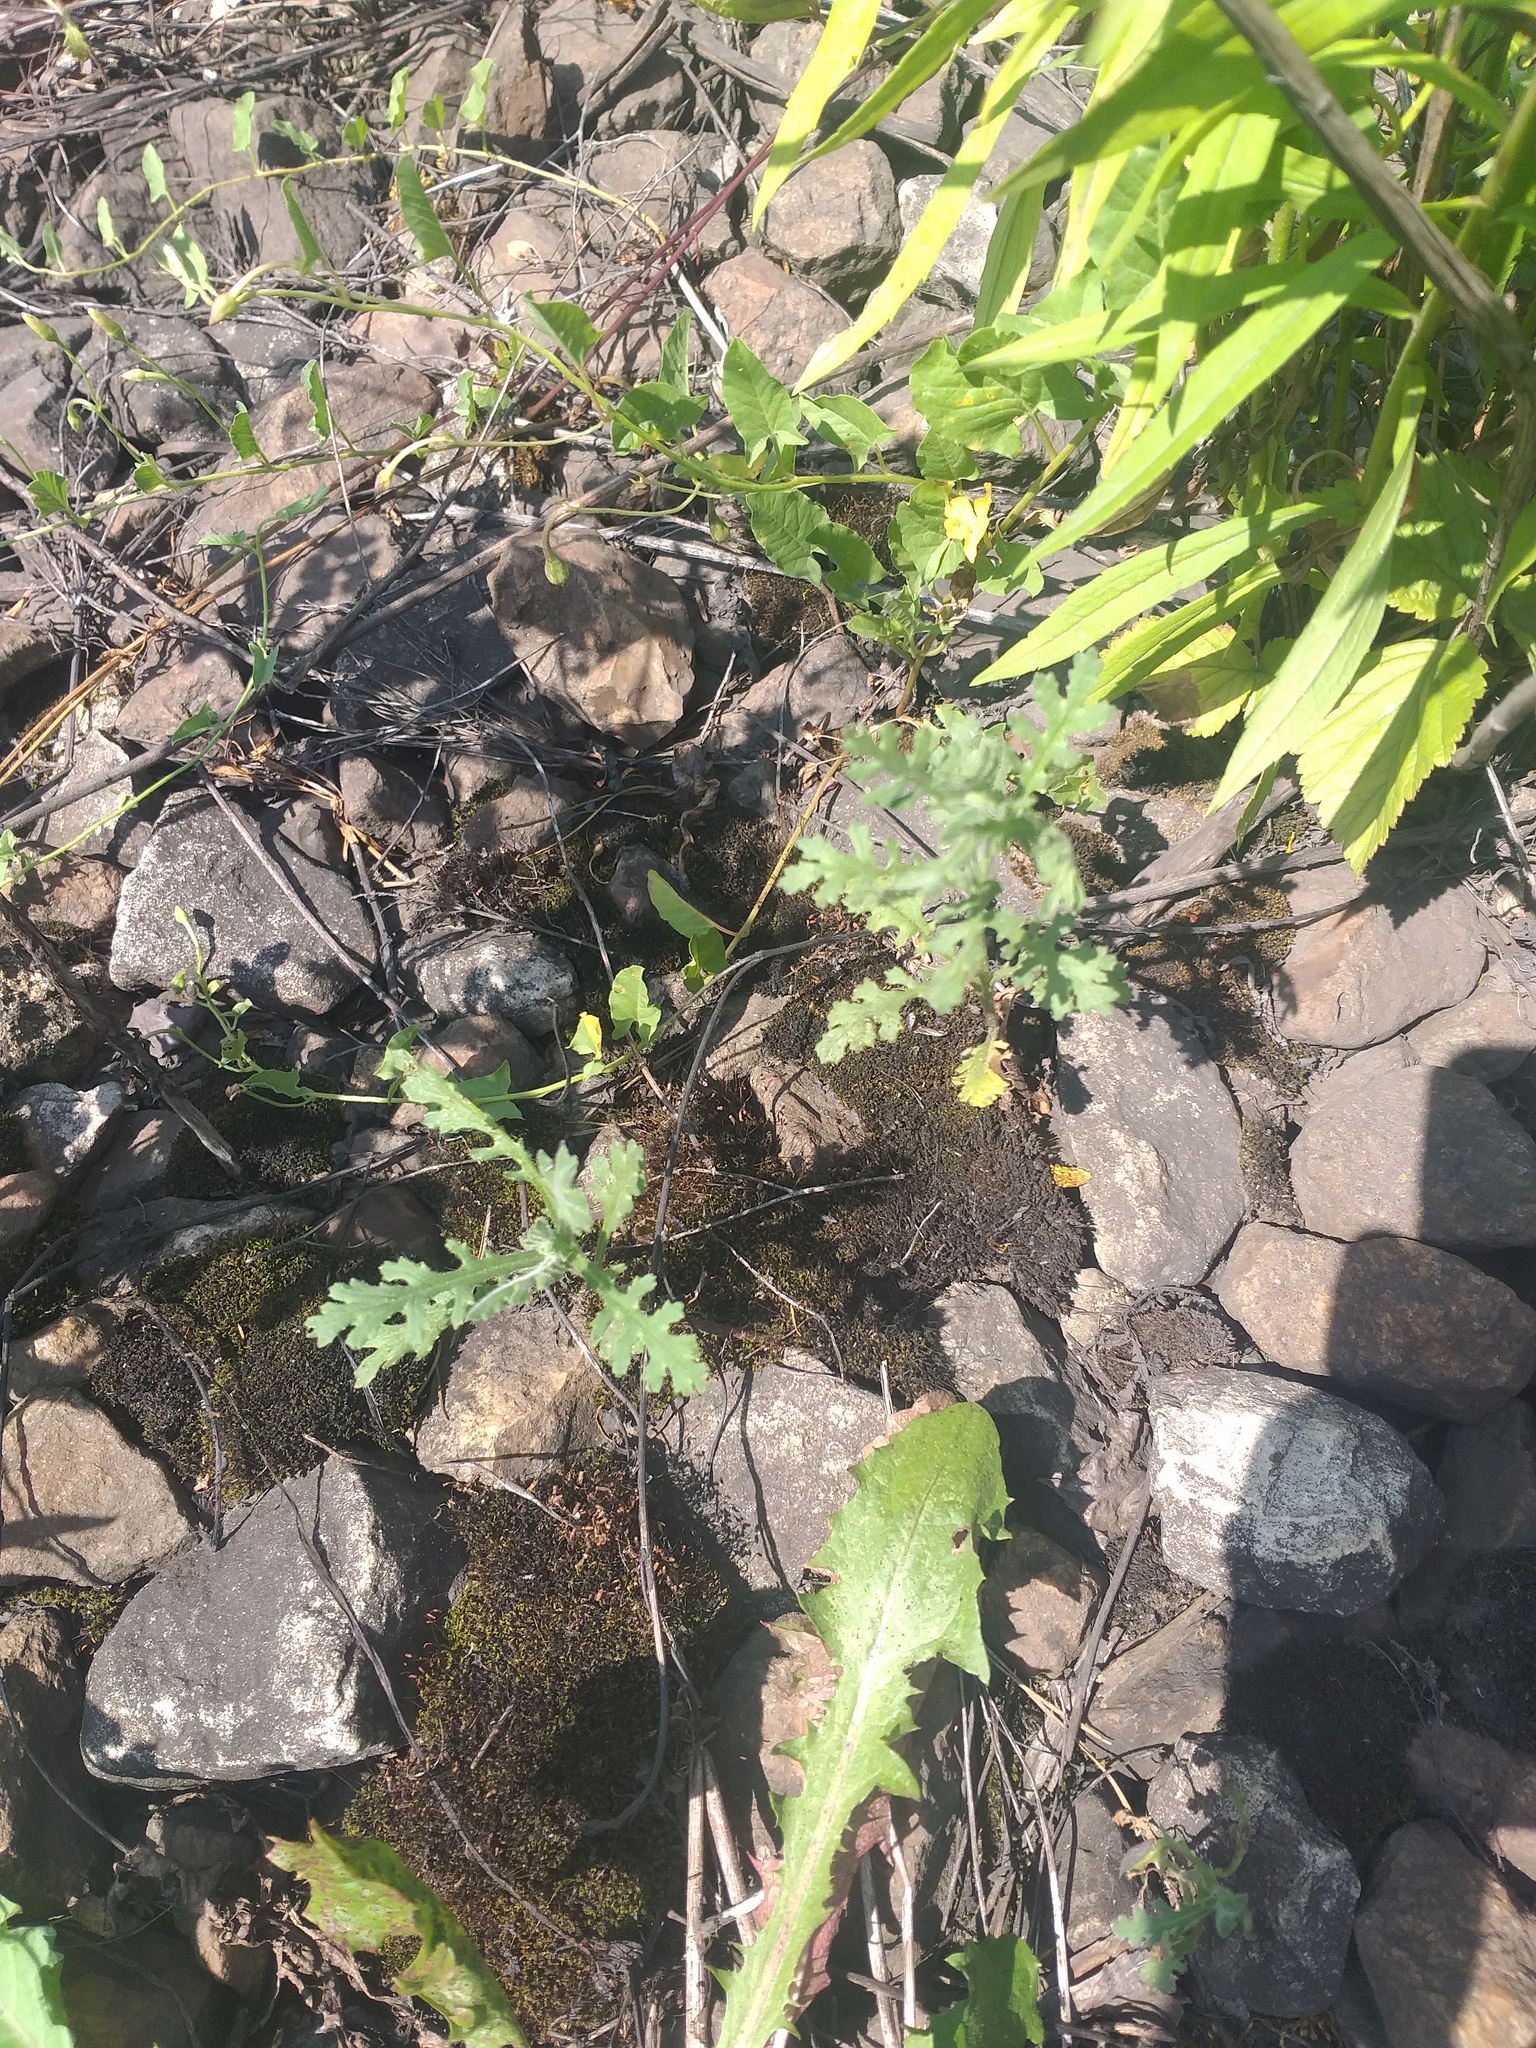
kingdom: Plantae
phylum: Tracheophyta
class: Magnoliopsida
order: Asterales
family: Asteraceae
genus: Senecio
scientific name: Senecio viscosus
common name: Sticky groundsel
